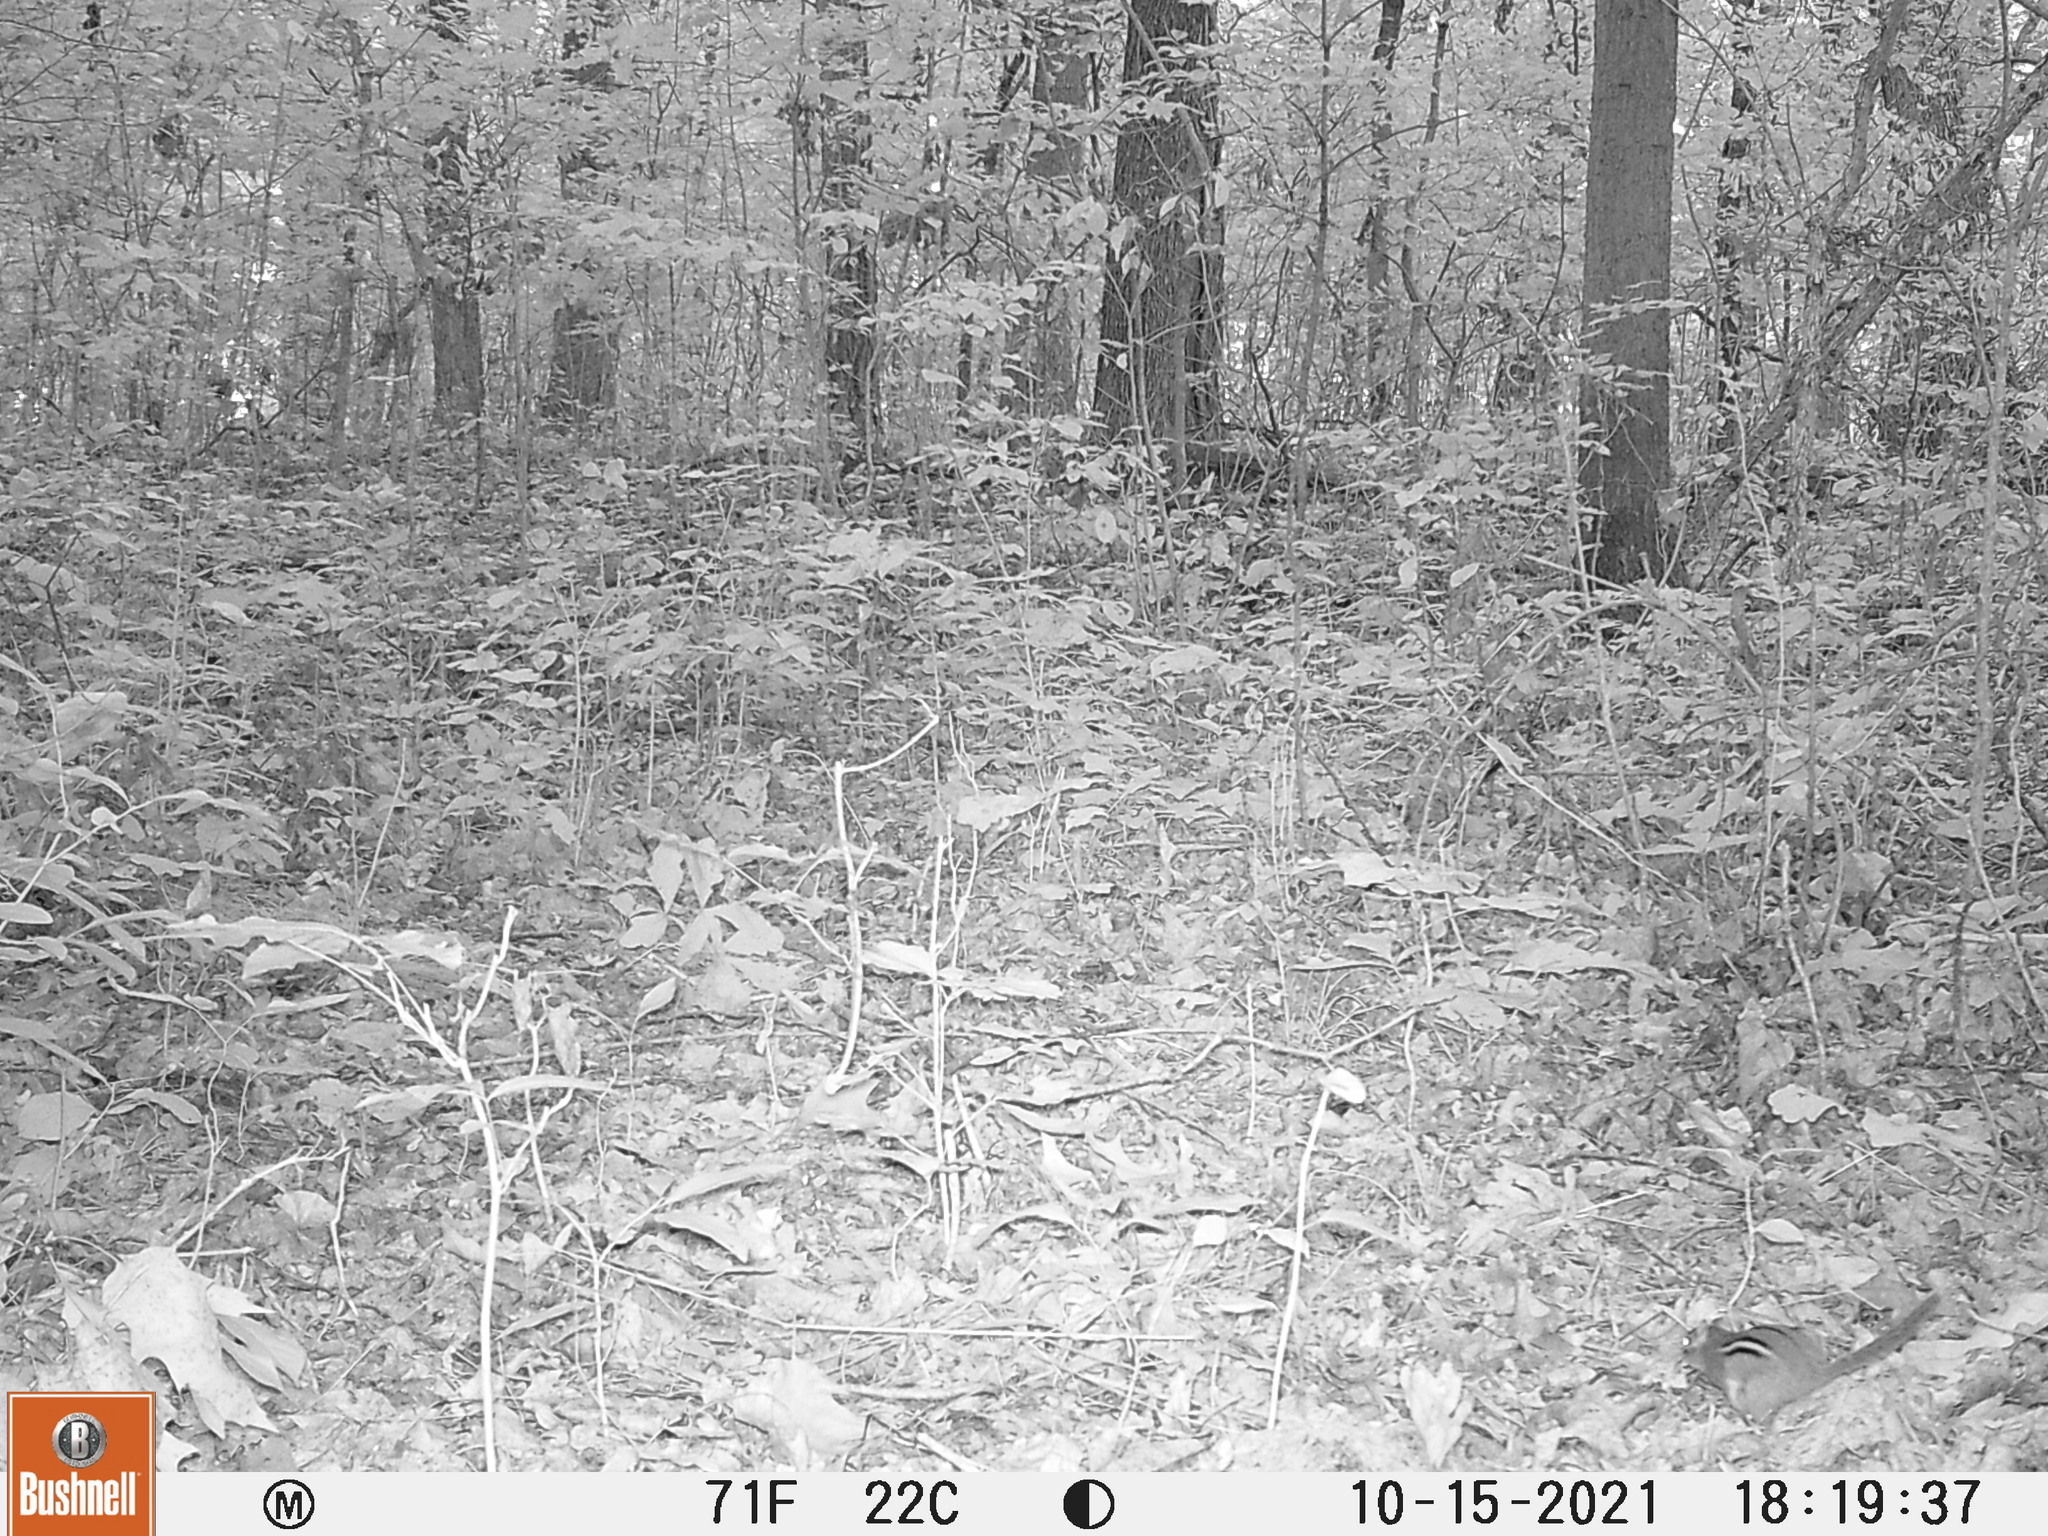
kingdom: Animalia
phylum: Chordata
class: Mammalia
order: Rodentia
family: Sciuridae
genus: Tamias
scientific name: Tamias striatus
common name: Eastern chipmunk
